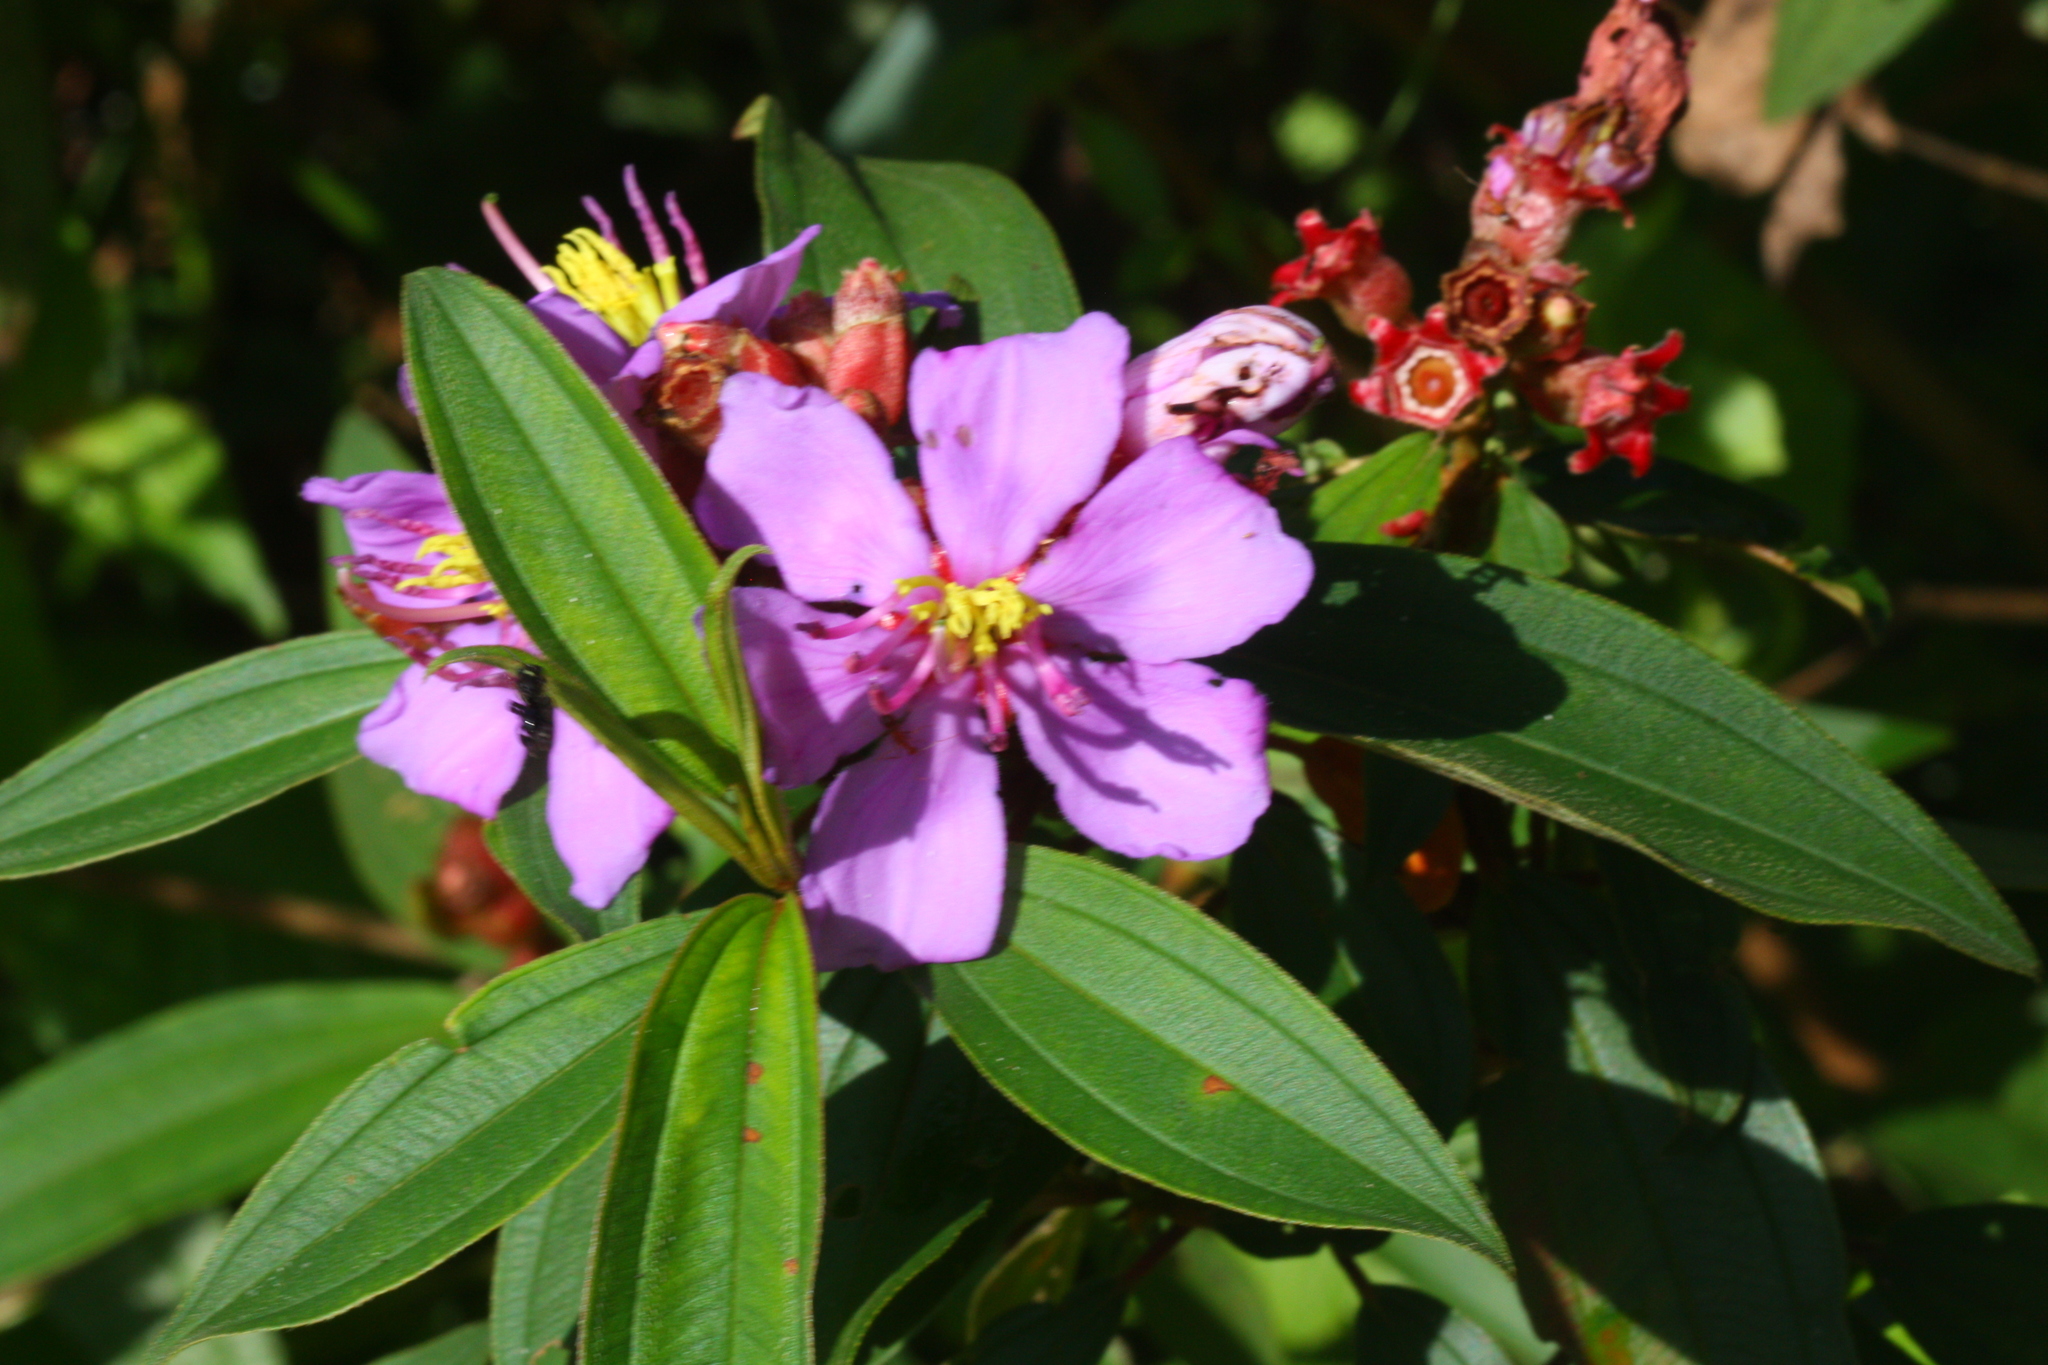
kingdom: Plantae
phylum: Tracheophyta
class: Magnoliopsida
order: Myrtales
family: Melastomataceae
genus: Melastoma
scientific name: Melastoma malabathricum
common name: Indian-rhododendron
